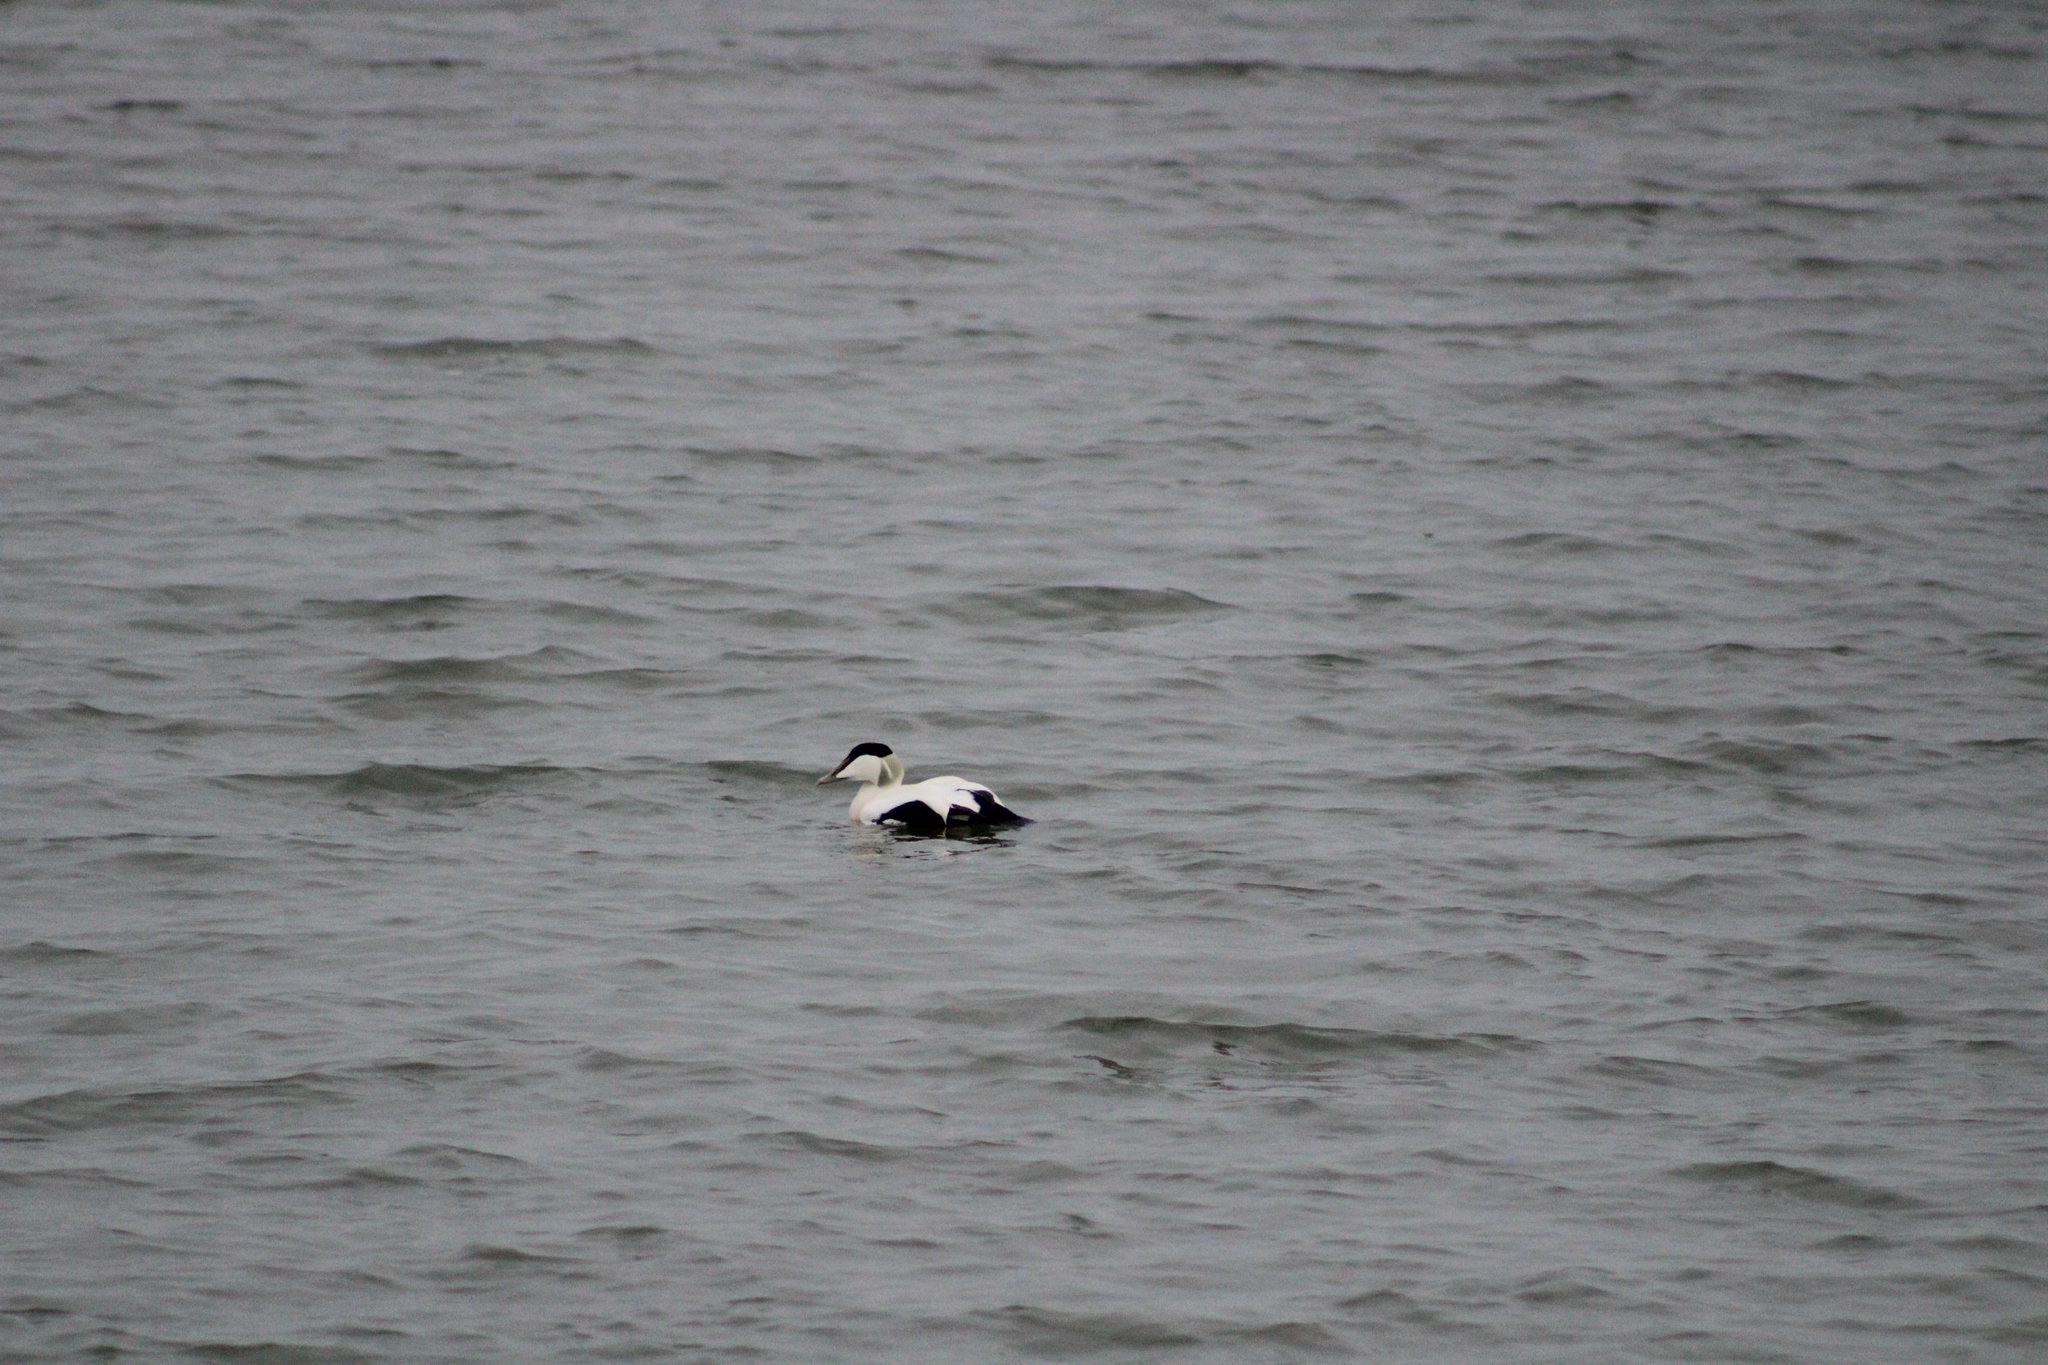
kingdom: Animalia
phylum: Chordata
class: Aves
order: Anseriformes
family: Anatidae
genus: Somateria
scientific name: Somateria mollissima
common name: Common eider
